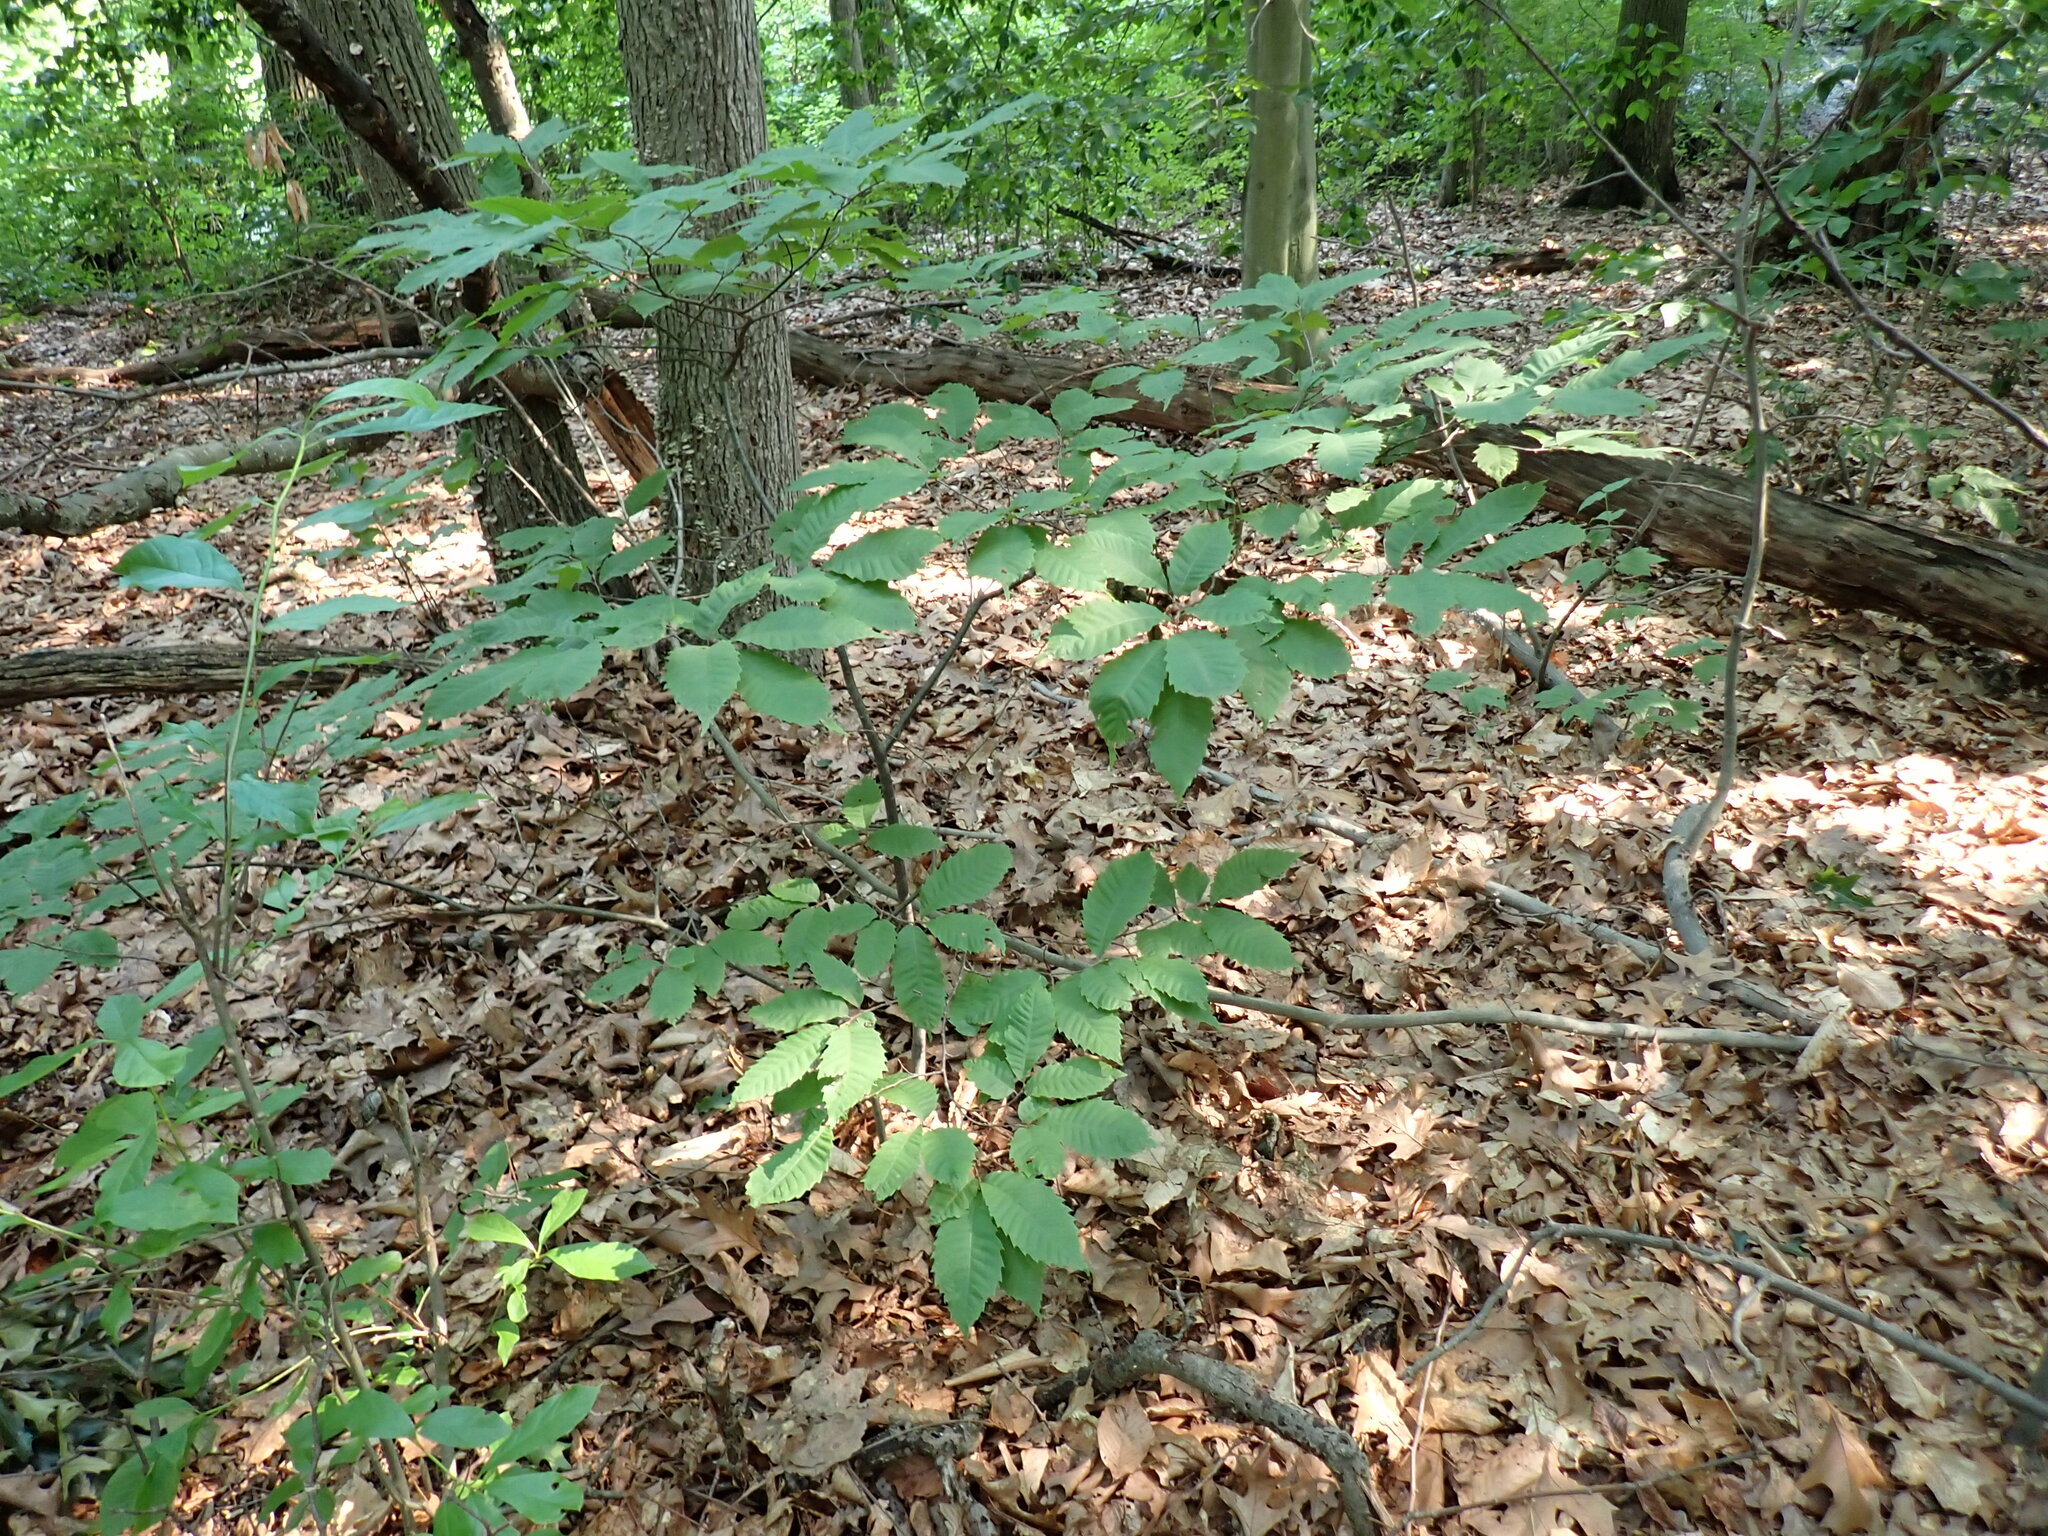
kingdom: Plantae
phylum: Tracheophyta
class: Magnoliopsida
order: Fagales
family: Fagaceae
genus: Castanea
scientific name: Castanea dentata
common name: American chestnut
